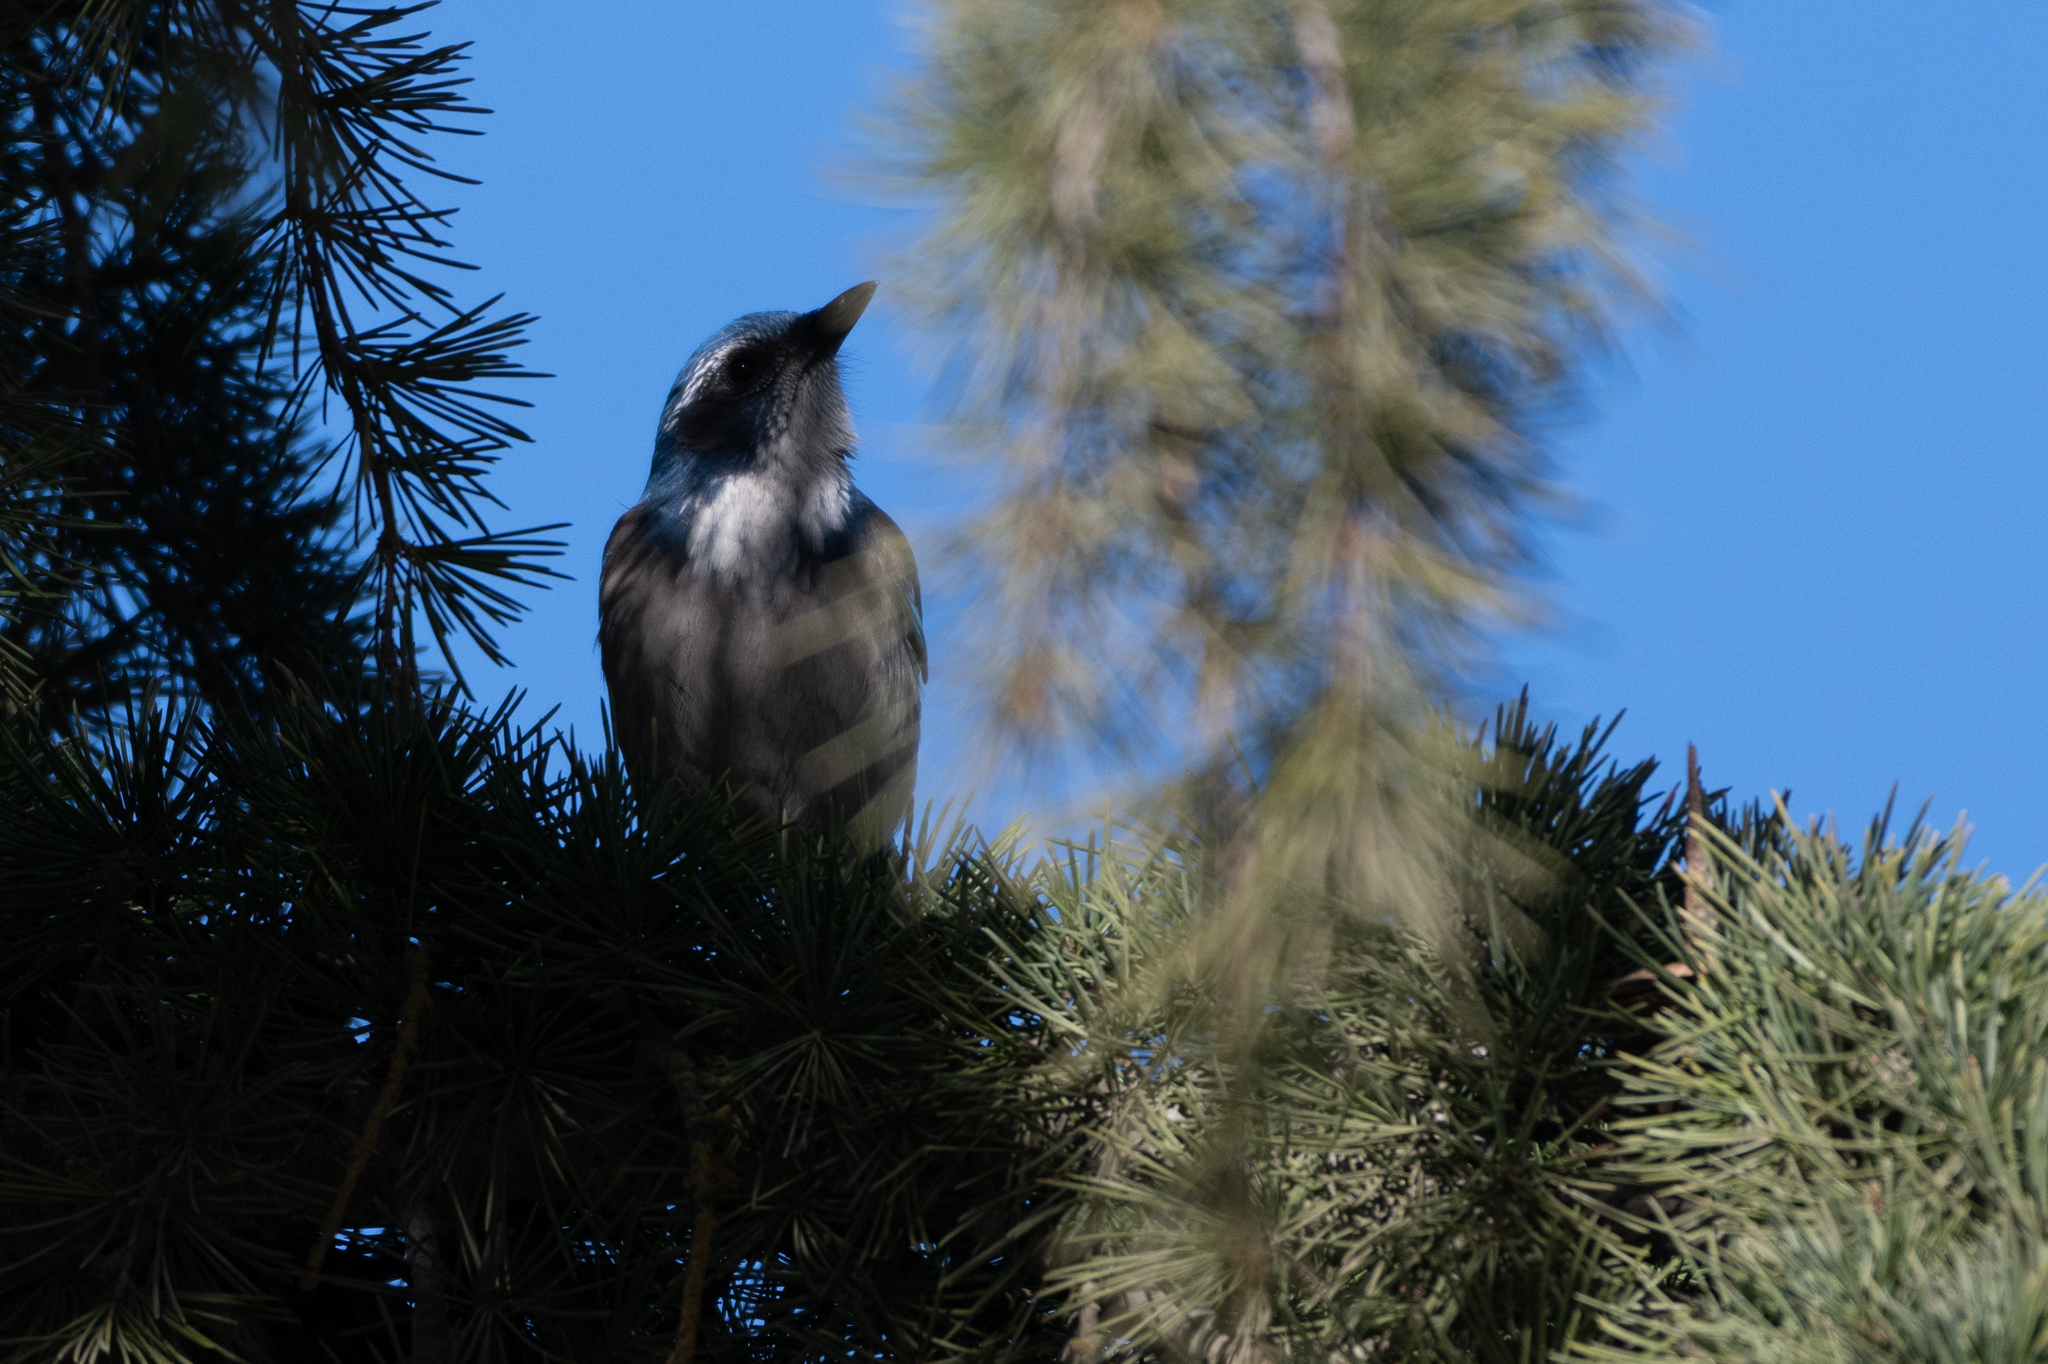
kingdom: Animalia
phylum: Chordata
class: Aves
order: Passeriformes
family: Corvidae
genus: Aphelocoma
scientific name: Aphelocoma californica
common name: California scrub-jay
